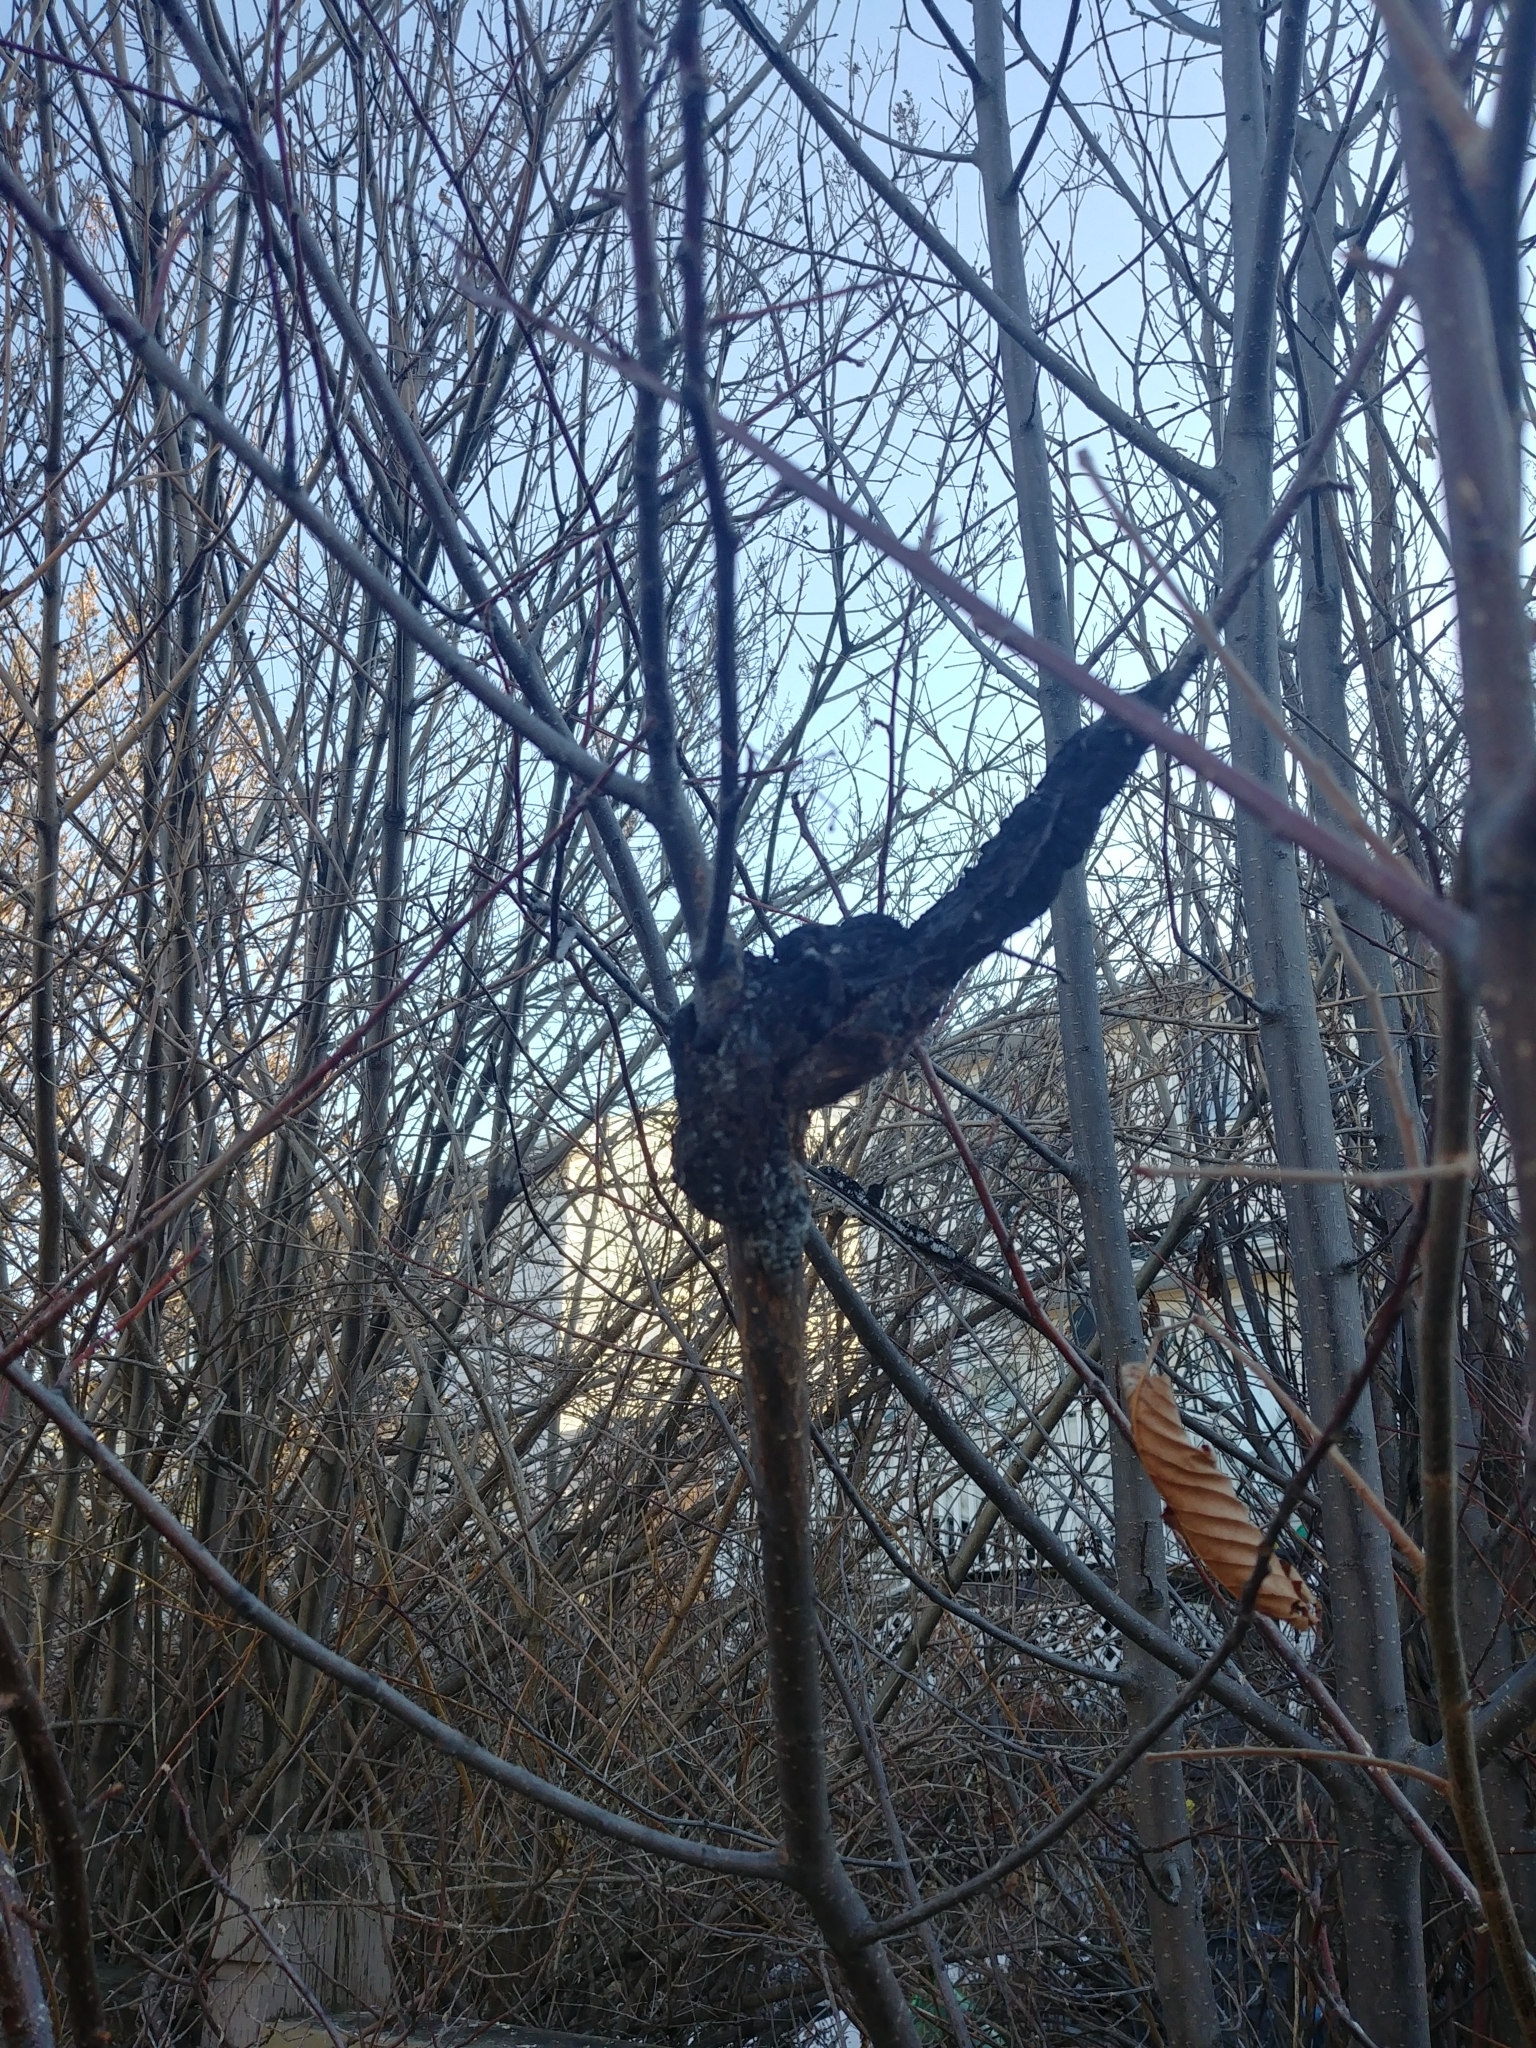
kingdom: Fungi
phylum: Ascomycota
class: Dothideomycetes
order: Venturiales
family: Venturiaceae
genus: Apiosporina
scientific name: Apiosporina morbosa
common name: Black knot
